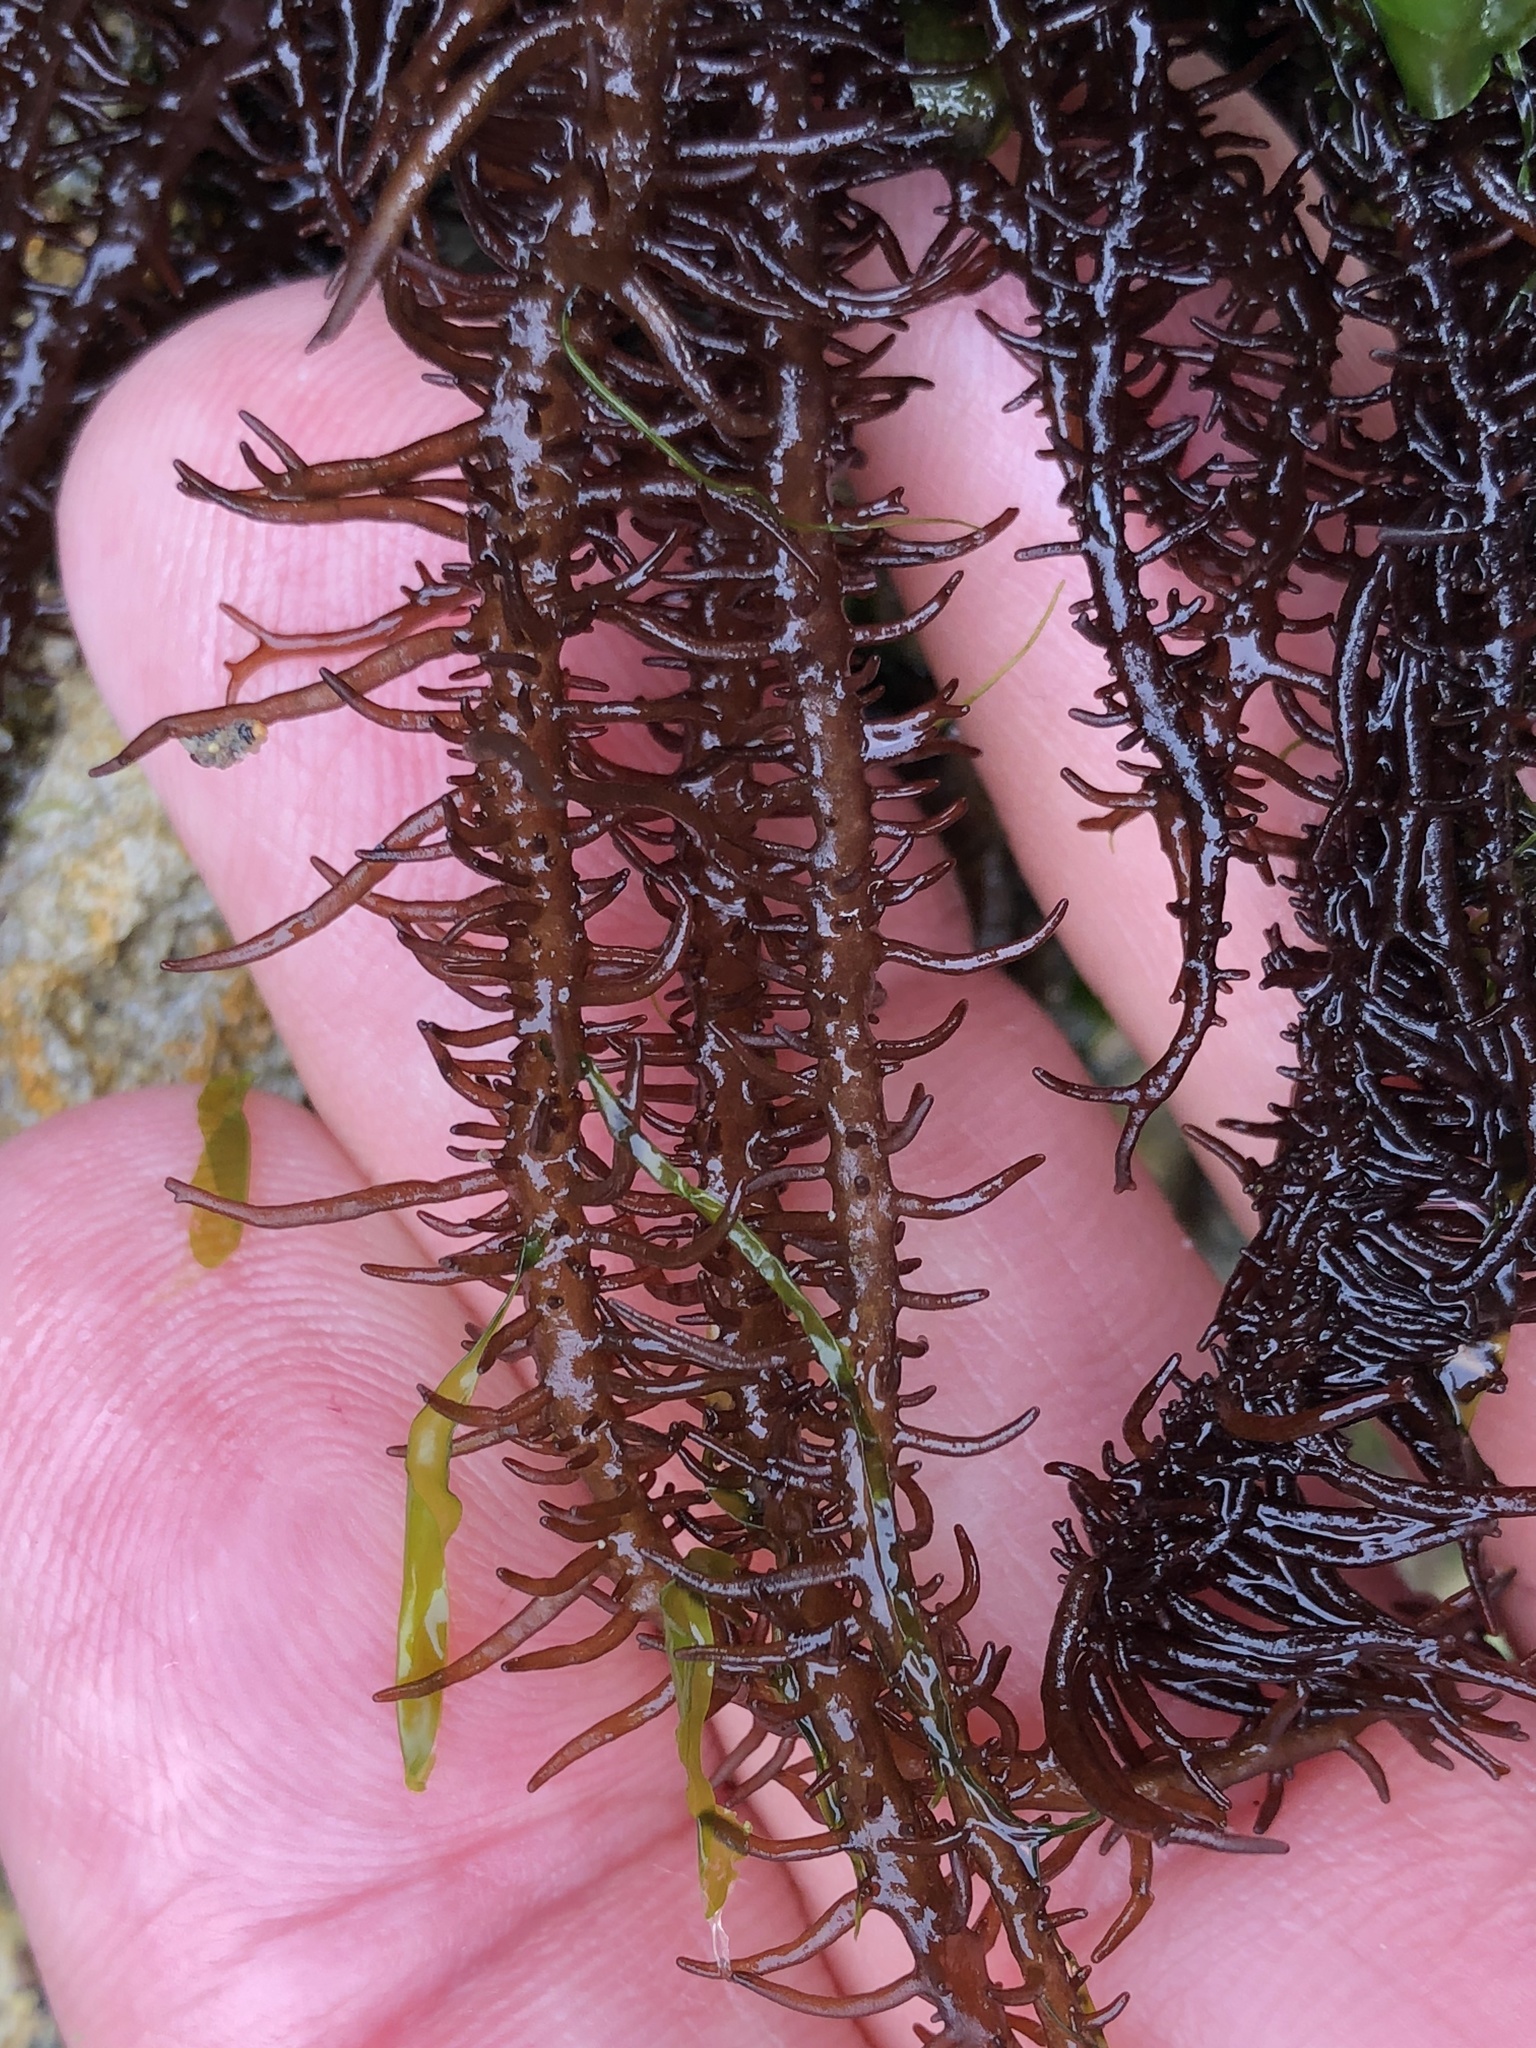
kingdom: Plantae
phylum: Rhodophyta
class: Florideophyceae
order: Nemaliales
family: Liagoraceae
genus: Cumagloia
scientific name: Cumagloia andersonii
